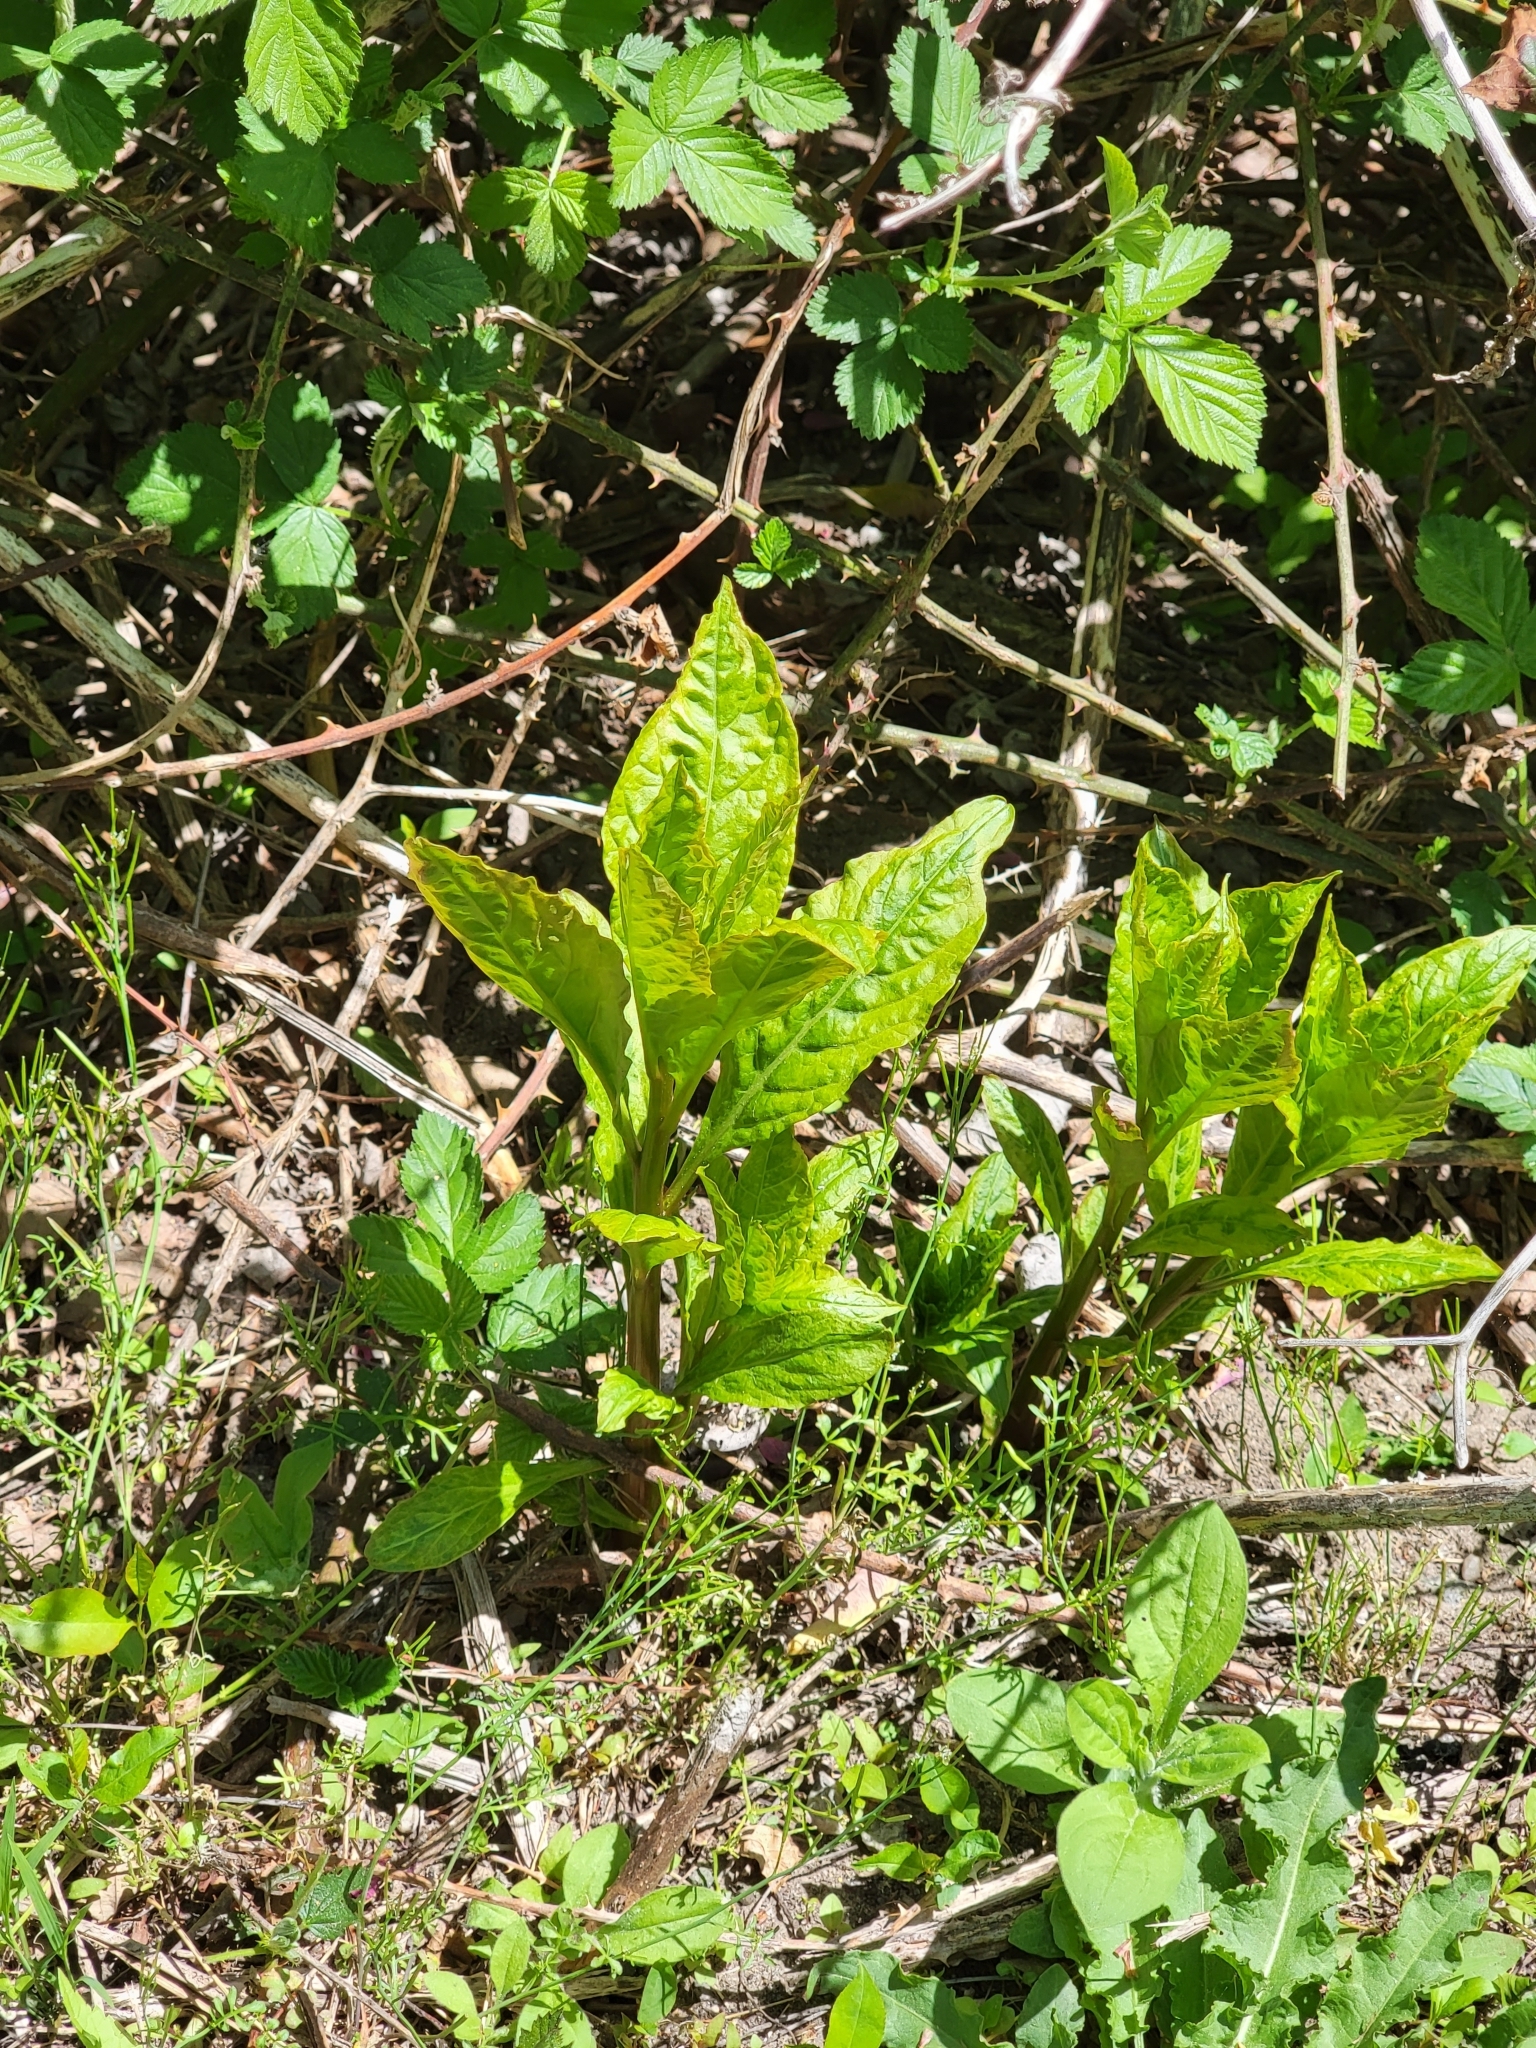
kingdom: Plantae
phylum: Tracheophyta
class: Magnoliopsida
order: Caryophyllales
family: Phytolaccaceae
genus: Phytolacca
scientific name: Phytolacca americana
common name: American pokeweed
